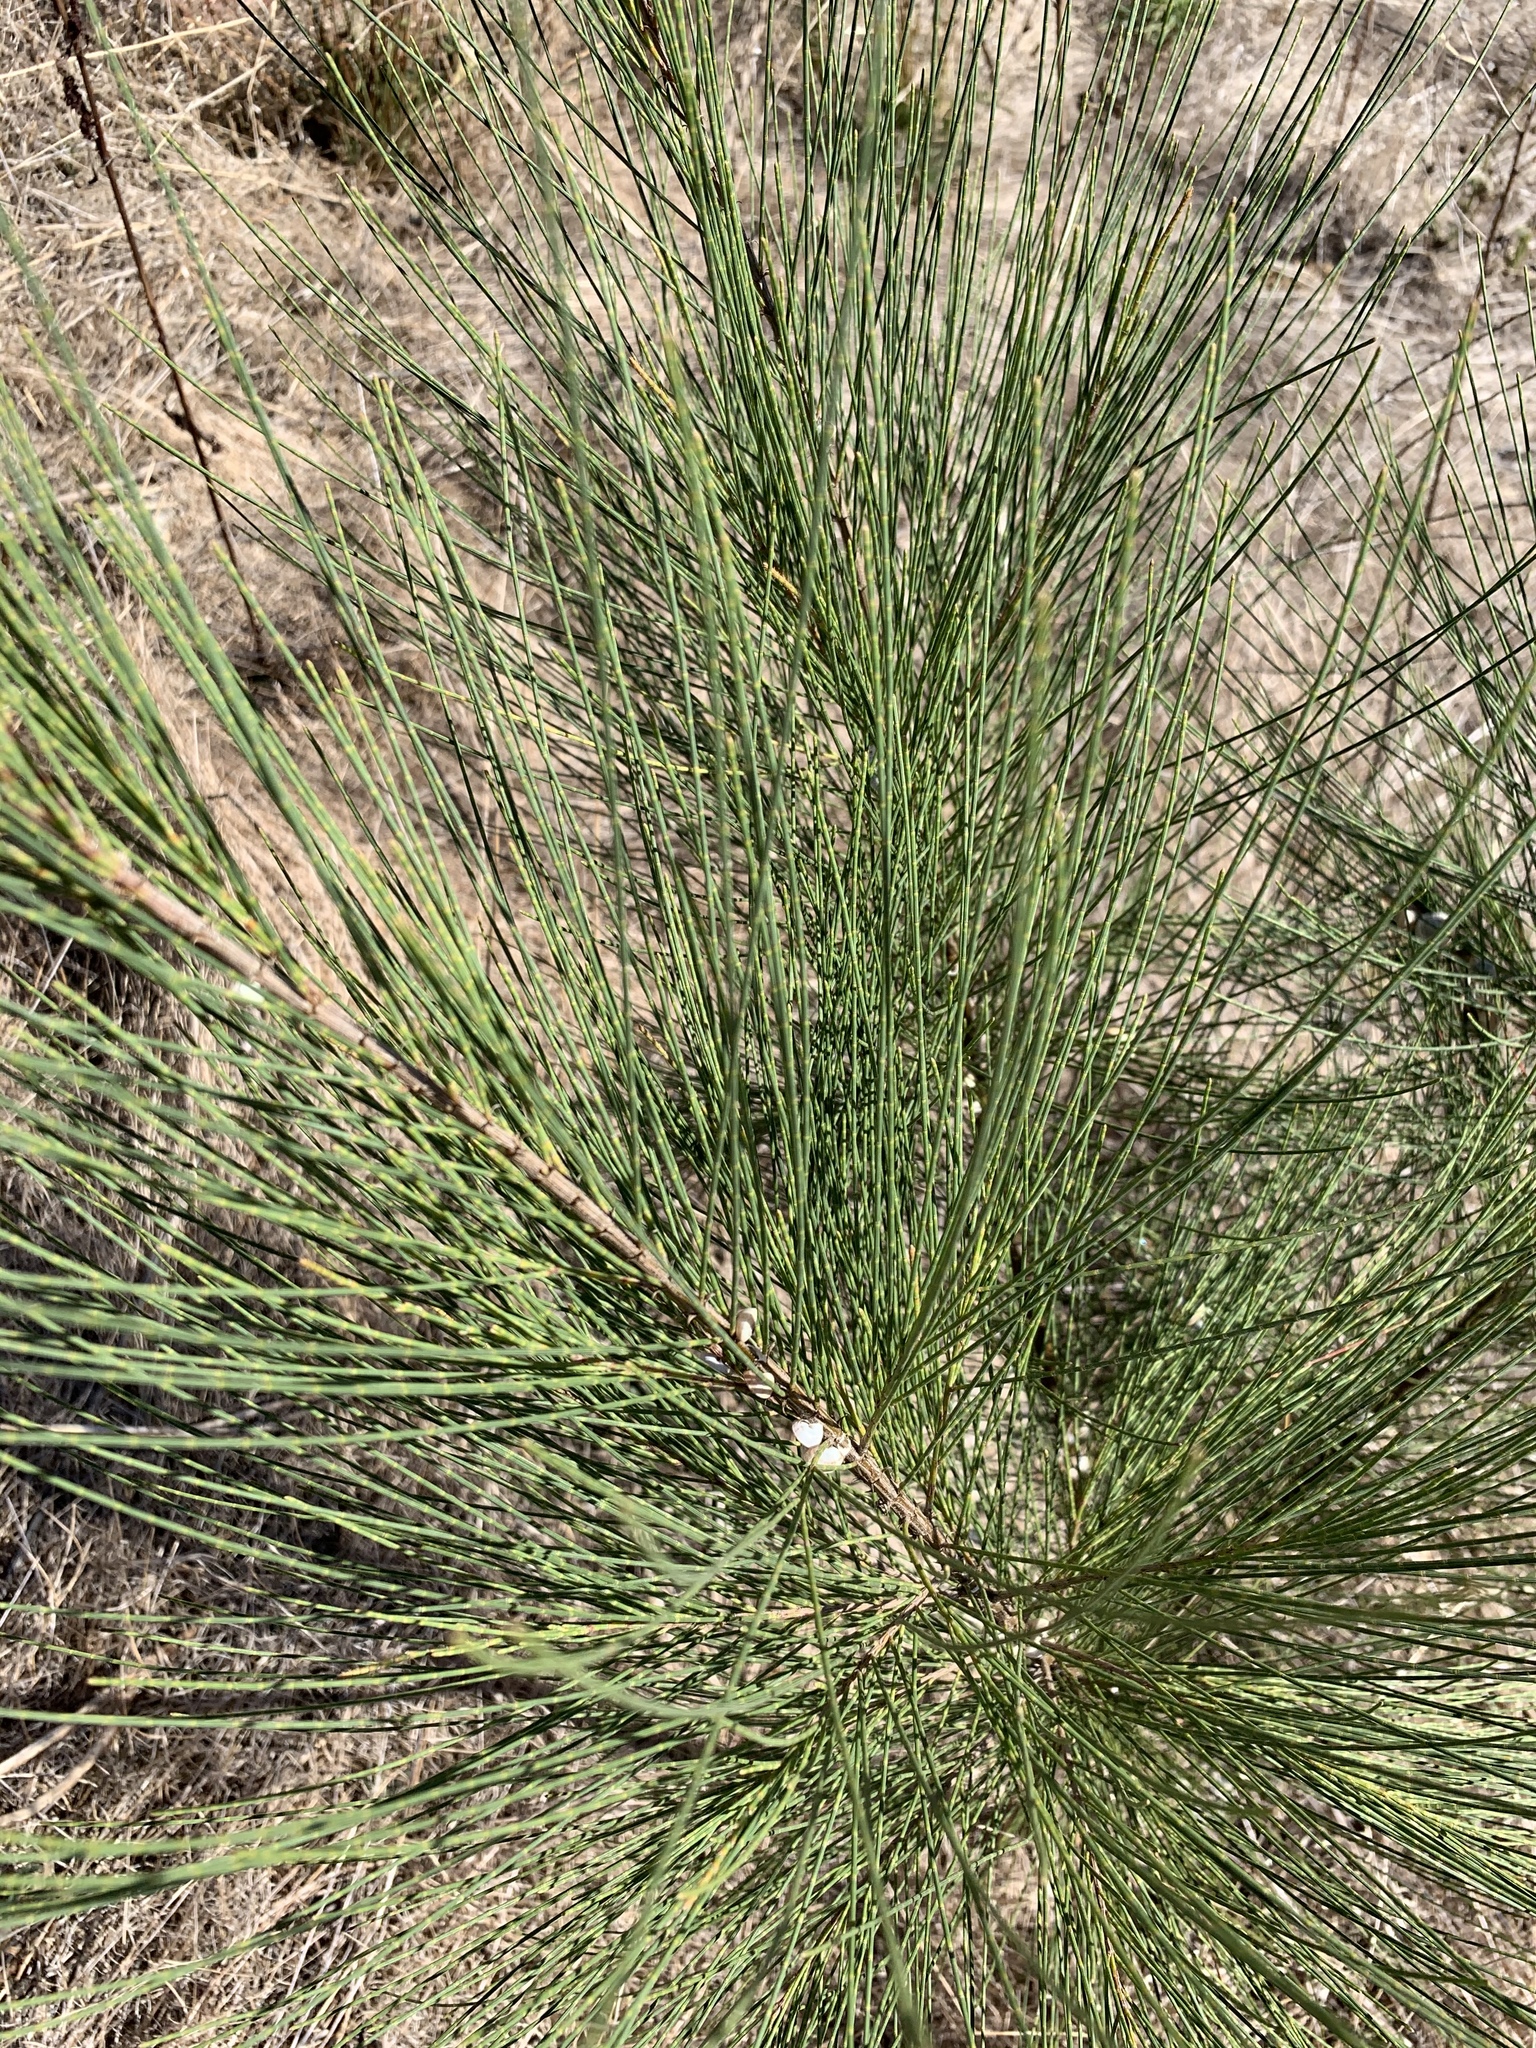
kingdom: Plantae
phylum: Tracheophyta
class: Magnoliopsida
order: Fagales
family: Casuarinaceae
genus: Casuarina
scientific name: Casuarina cunninghamiana
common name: River sheoak
